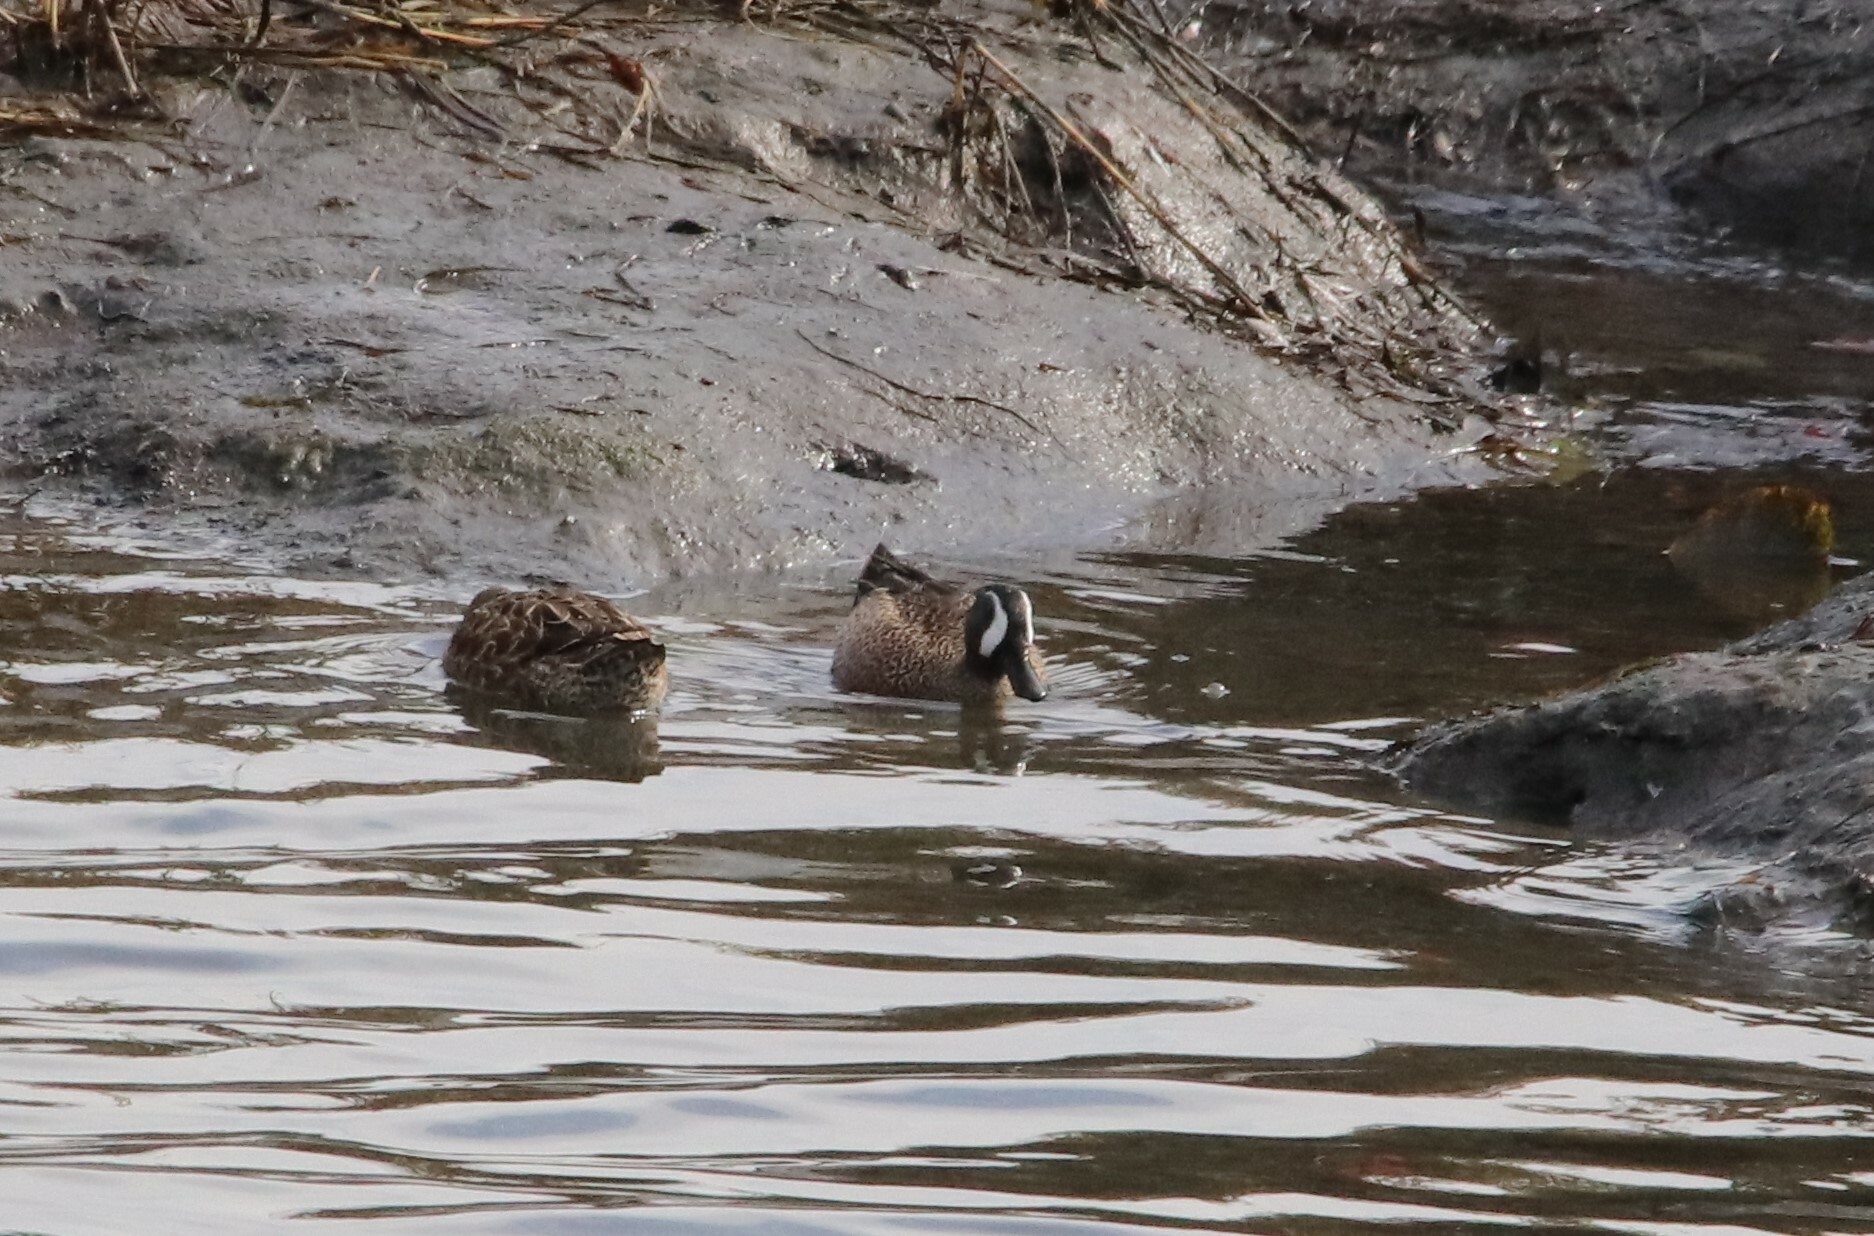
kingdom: Animalia
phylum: Chordata
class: Aves
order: Anseriformes
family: Anatidae
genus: Spatula
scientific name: Spatula discors
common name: Blue-winged teal
